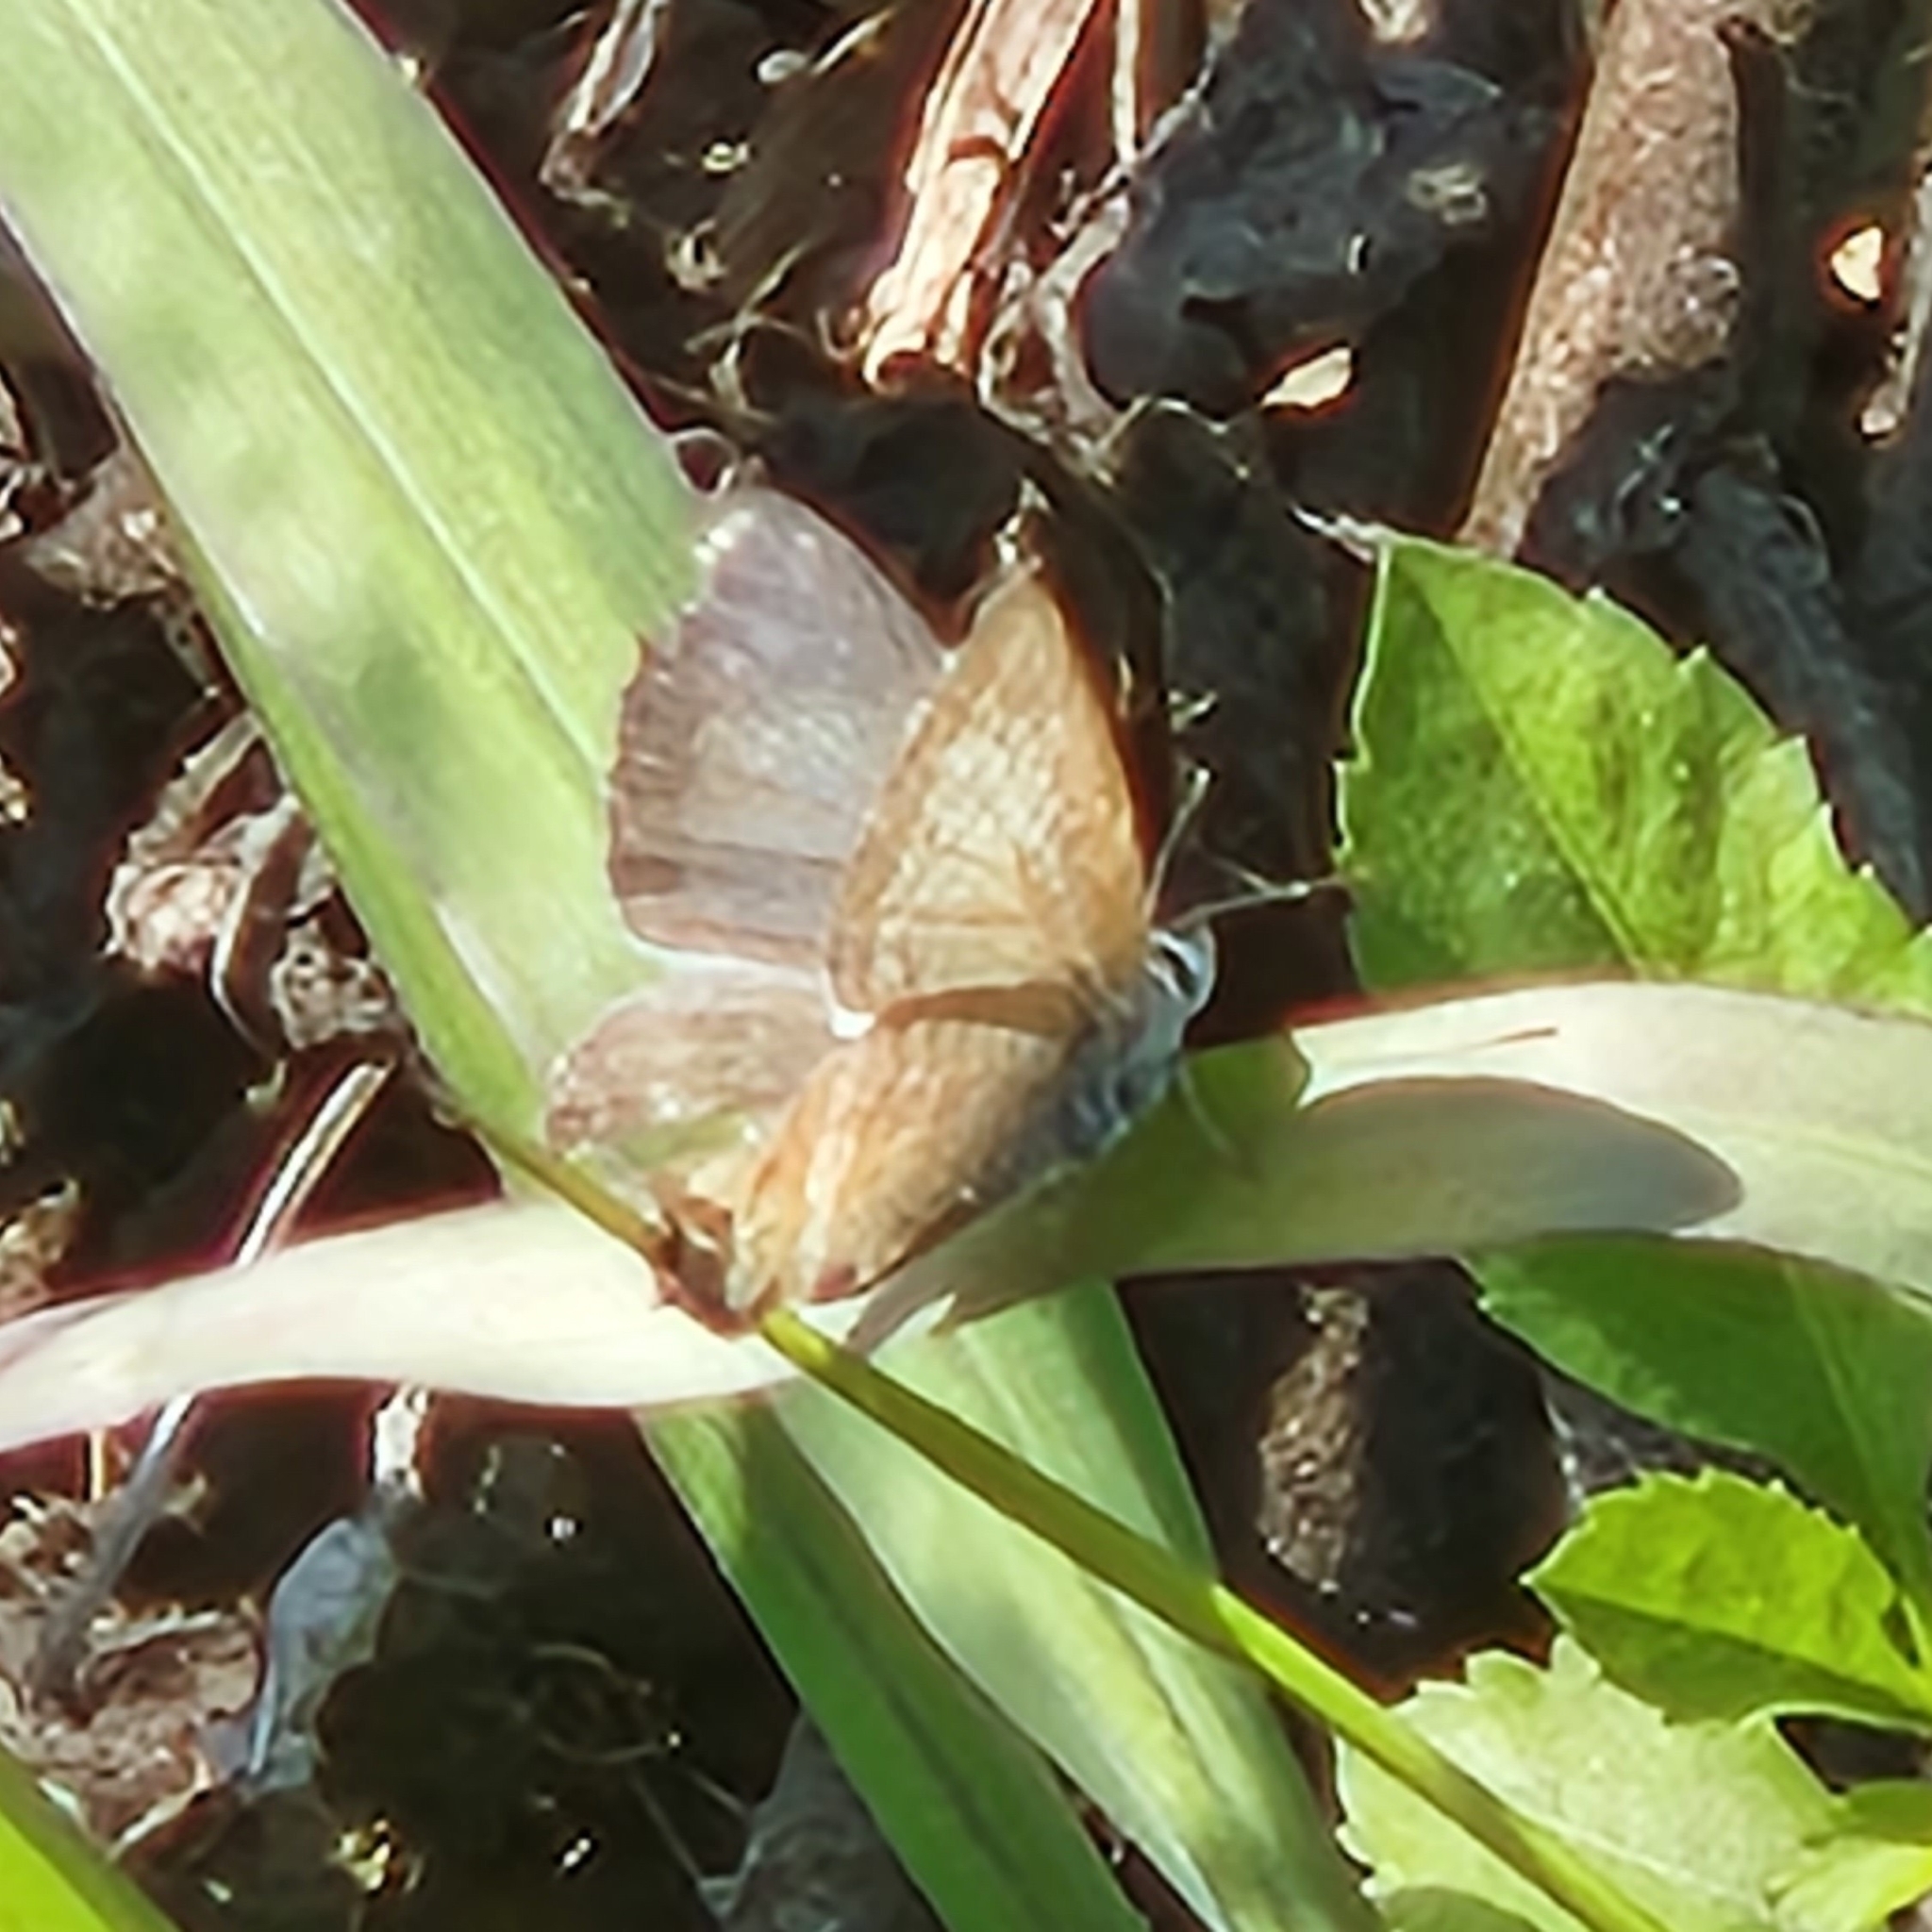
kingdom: Animalia
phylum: Arthropoda
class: Insecta
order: Lepidoptera
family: Lycaenidae
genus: Lampides
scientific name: Lampides boeticus
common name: Long-tailed blue
